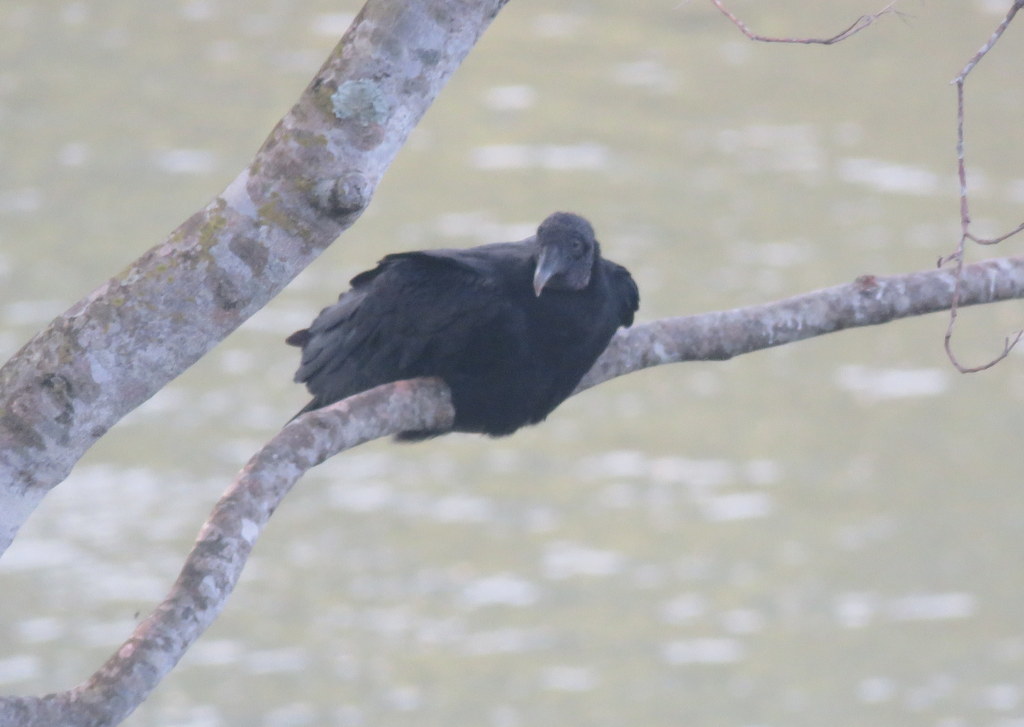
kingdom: Animalia
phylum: Chordata
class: Aves
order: Accipitriformes
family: Cathartidae
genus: Coragyps
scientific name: Coragyps atratus
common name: Black vulture
